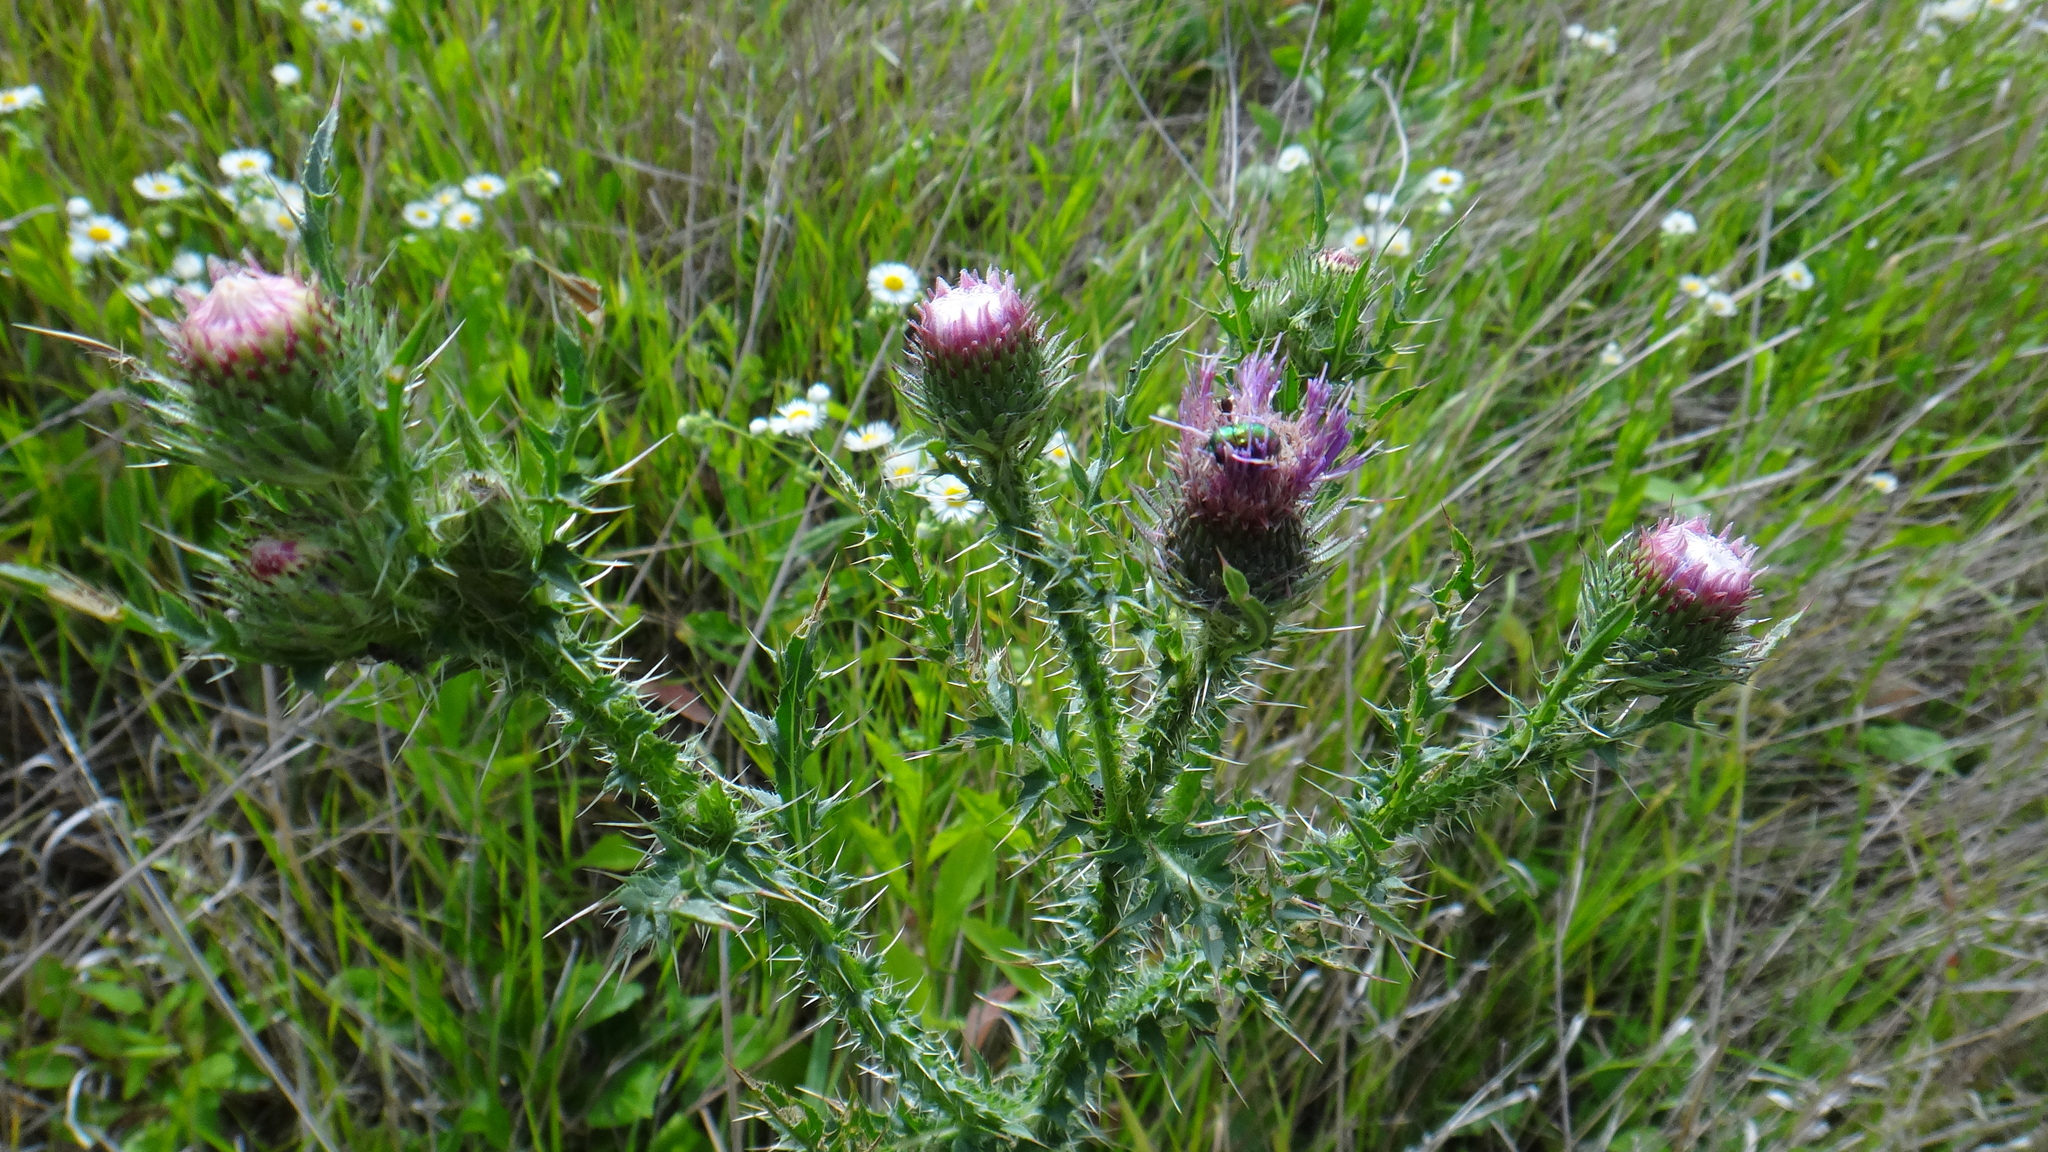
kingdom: Plantae
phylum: Tracheophyta
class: Magnoliopsida
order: Asterales
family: Asteraceae
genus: Carduus
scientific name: Carduus acanthoides
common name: Plumeless thistle
